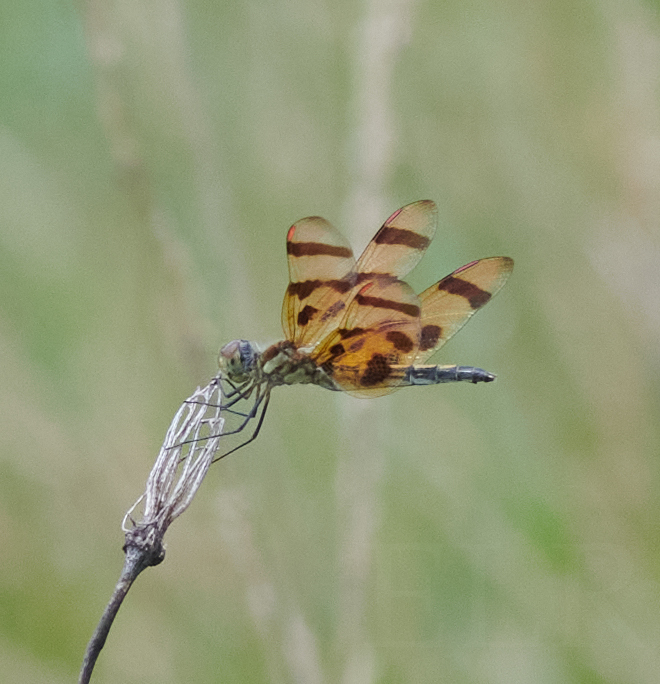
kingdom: Animalia
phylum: Arthropoda
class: Insecta
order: Odonata
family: Libellulidae
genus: Celithemis
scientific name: Celithemis eponina
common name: Halloween pennant
